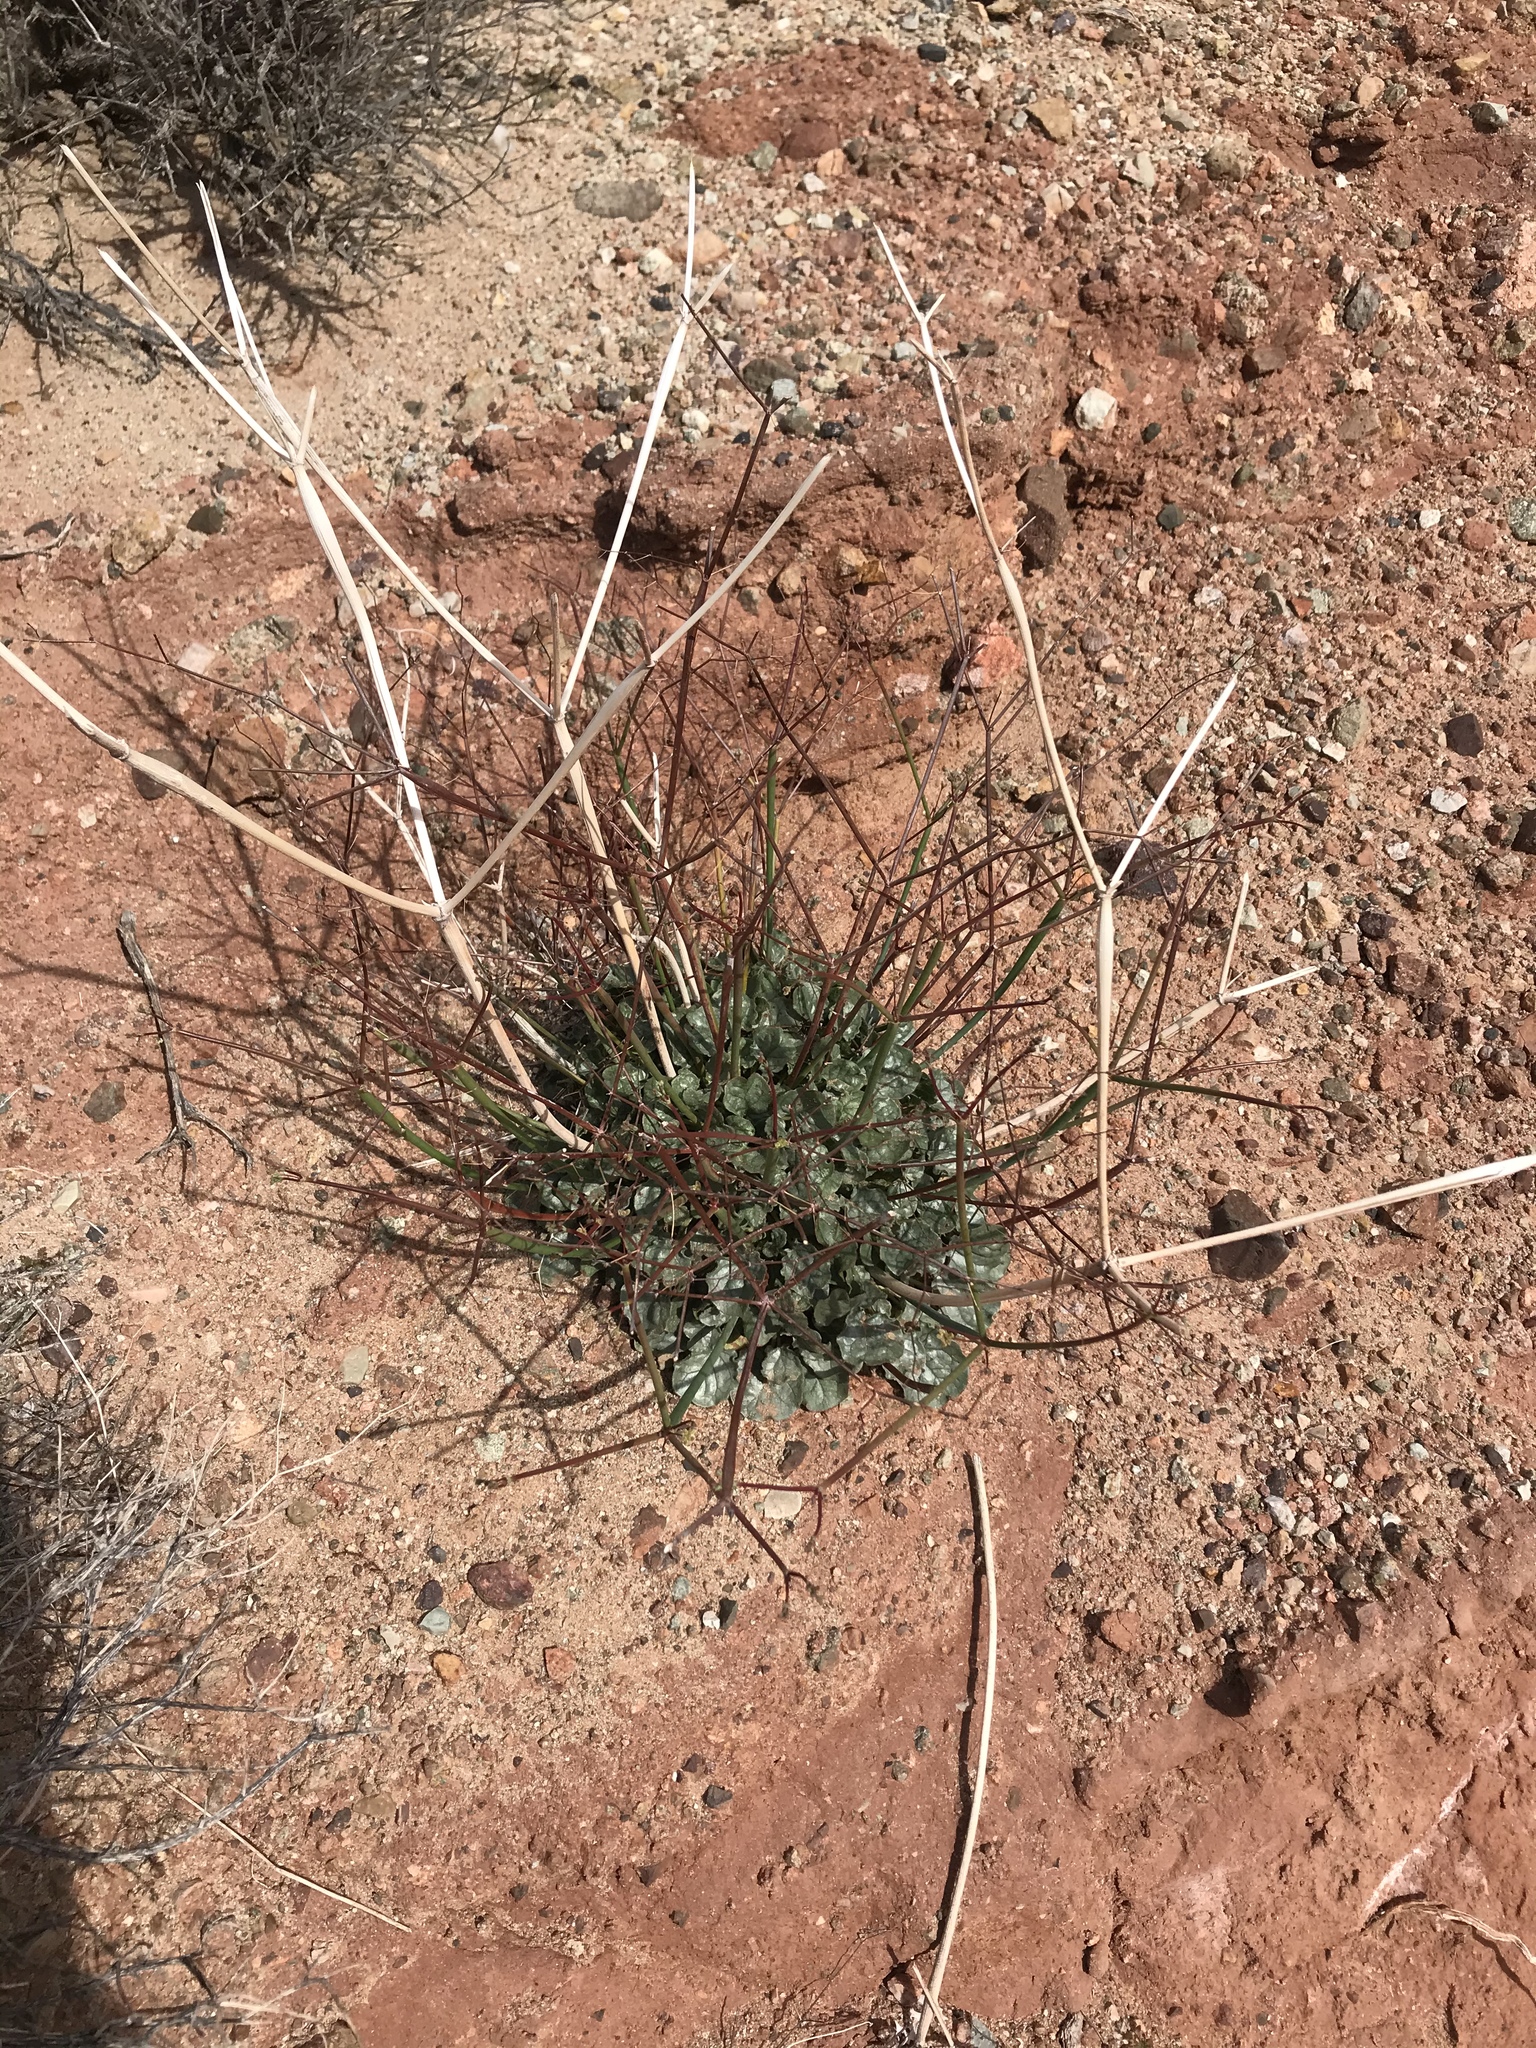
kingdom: Plantae
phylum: Tracheophyta
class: Magnoliopsida
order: Caryophyllales
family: Polygonaceae
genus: Eriogonum
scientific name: Eriogonum inflatum
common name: Desert trumpet
